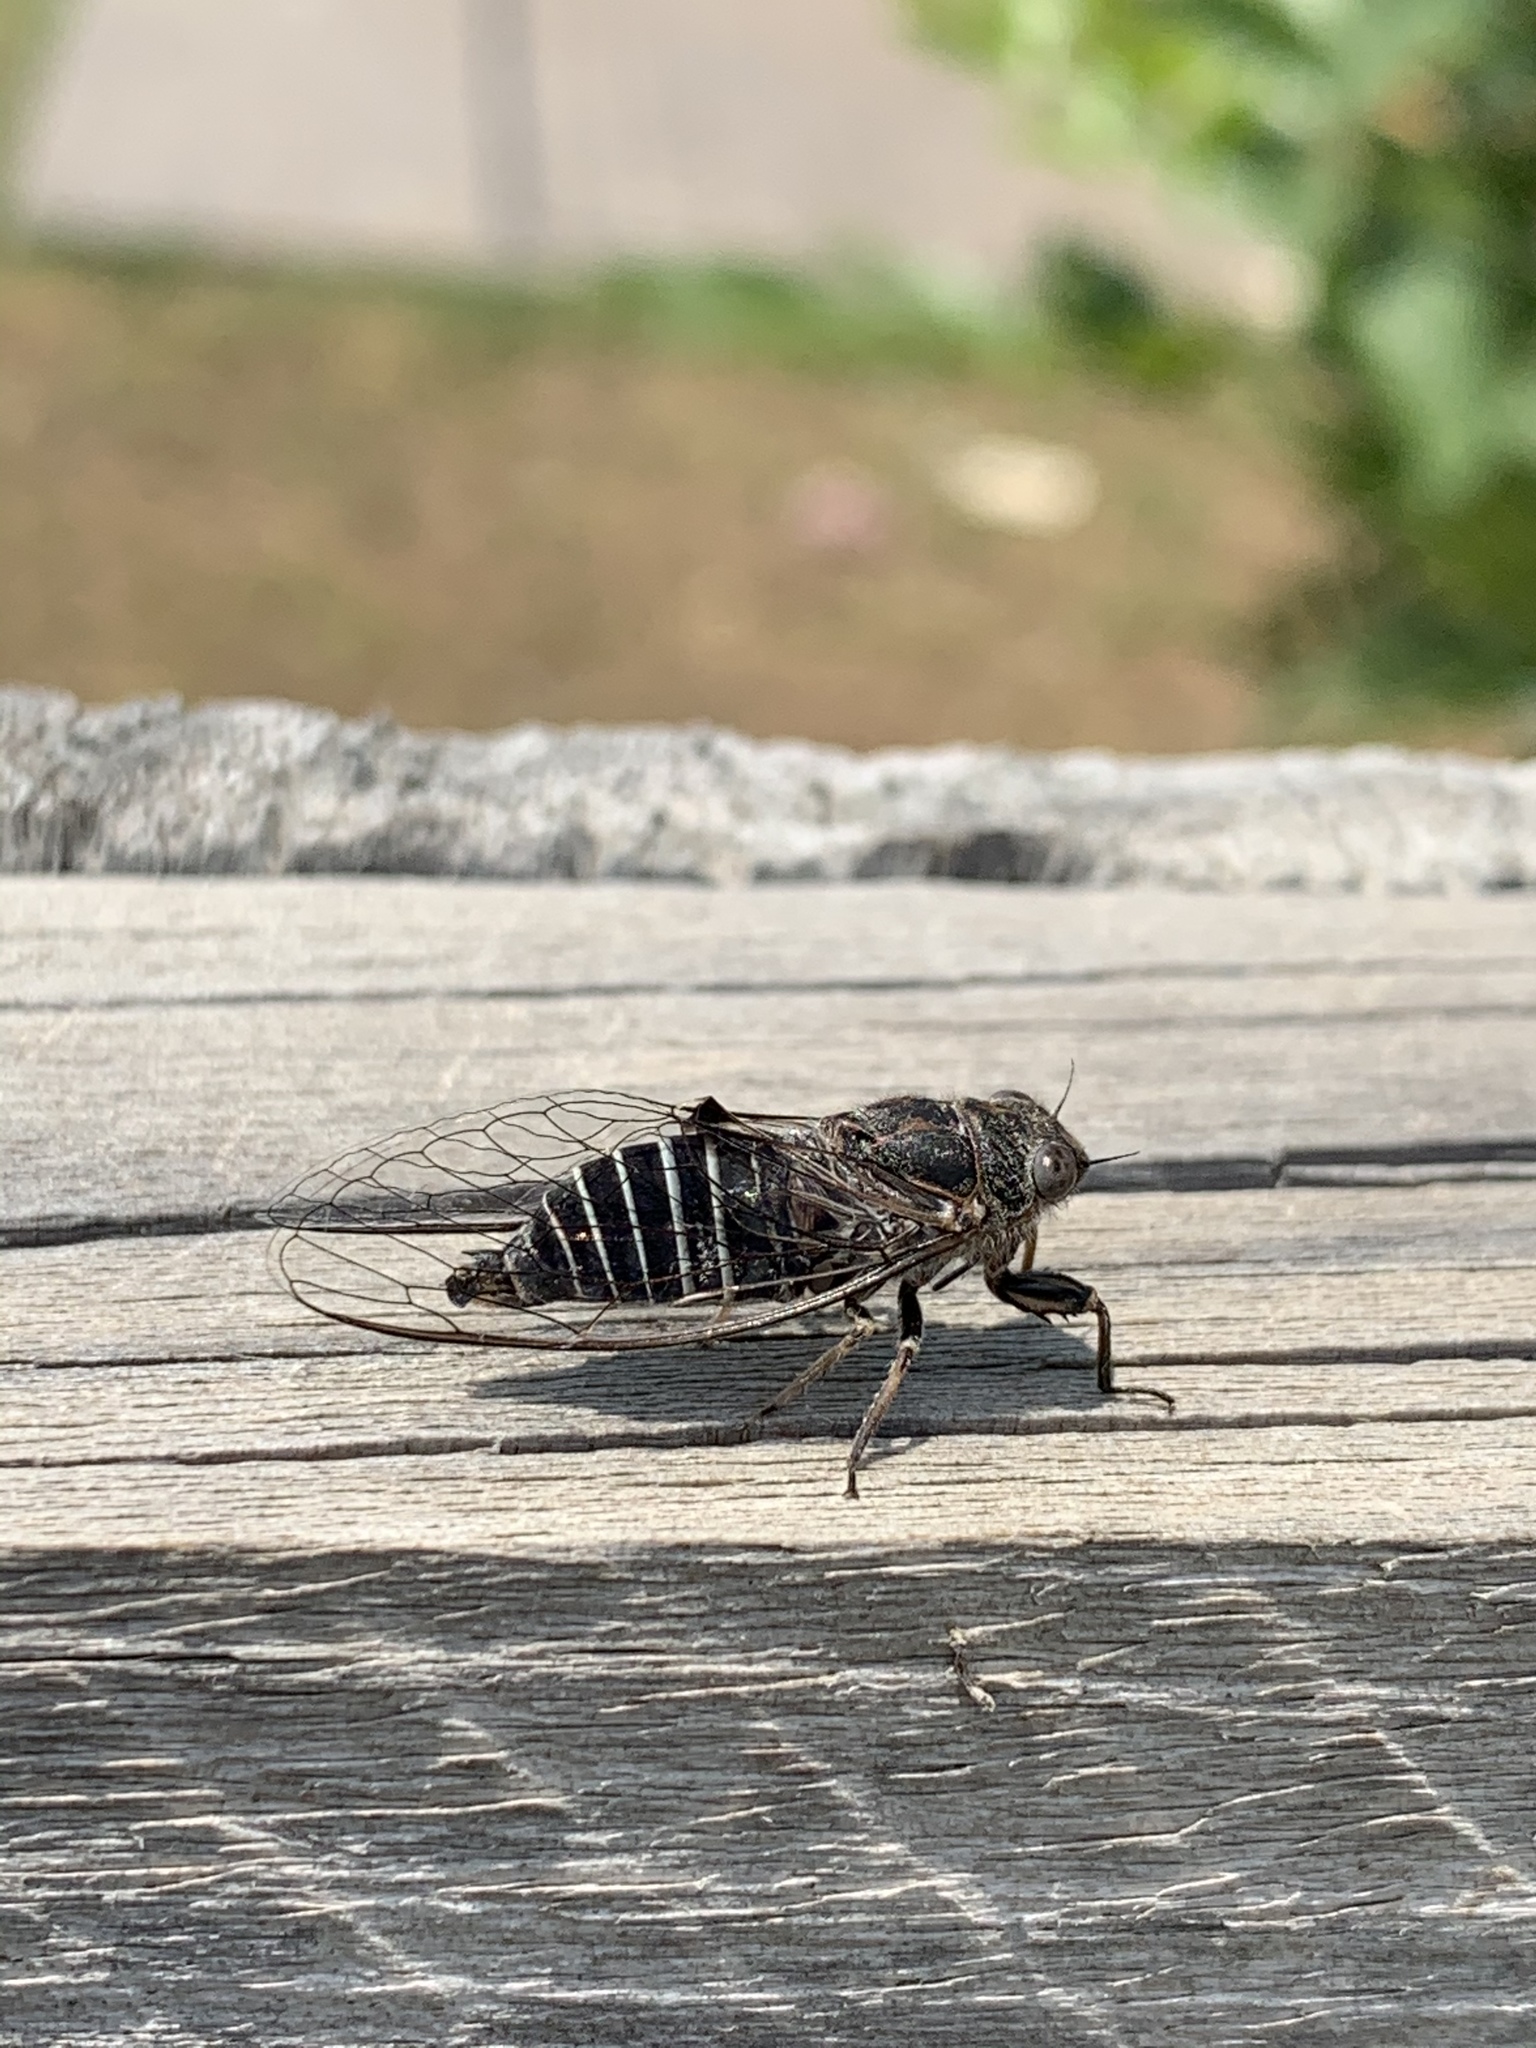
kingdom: Animalia
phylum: Arthropoda
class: Insecta
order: Hemiptera
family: Cicadidae
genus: Atrapsalta
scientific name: Atrapsalta corticina
